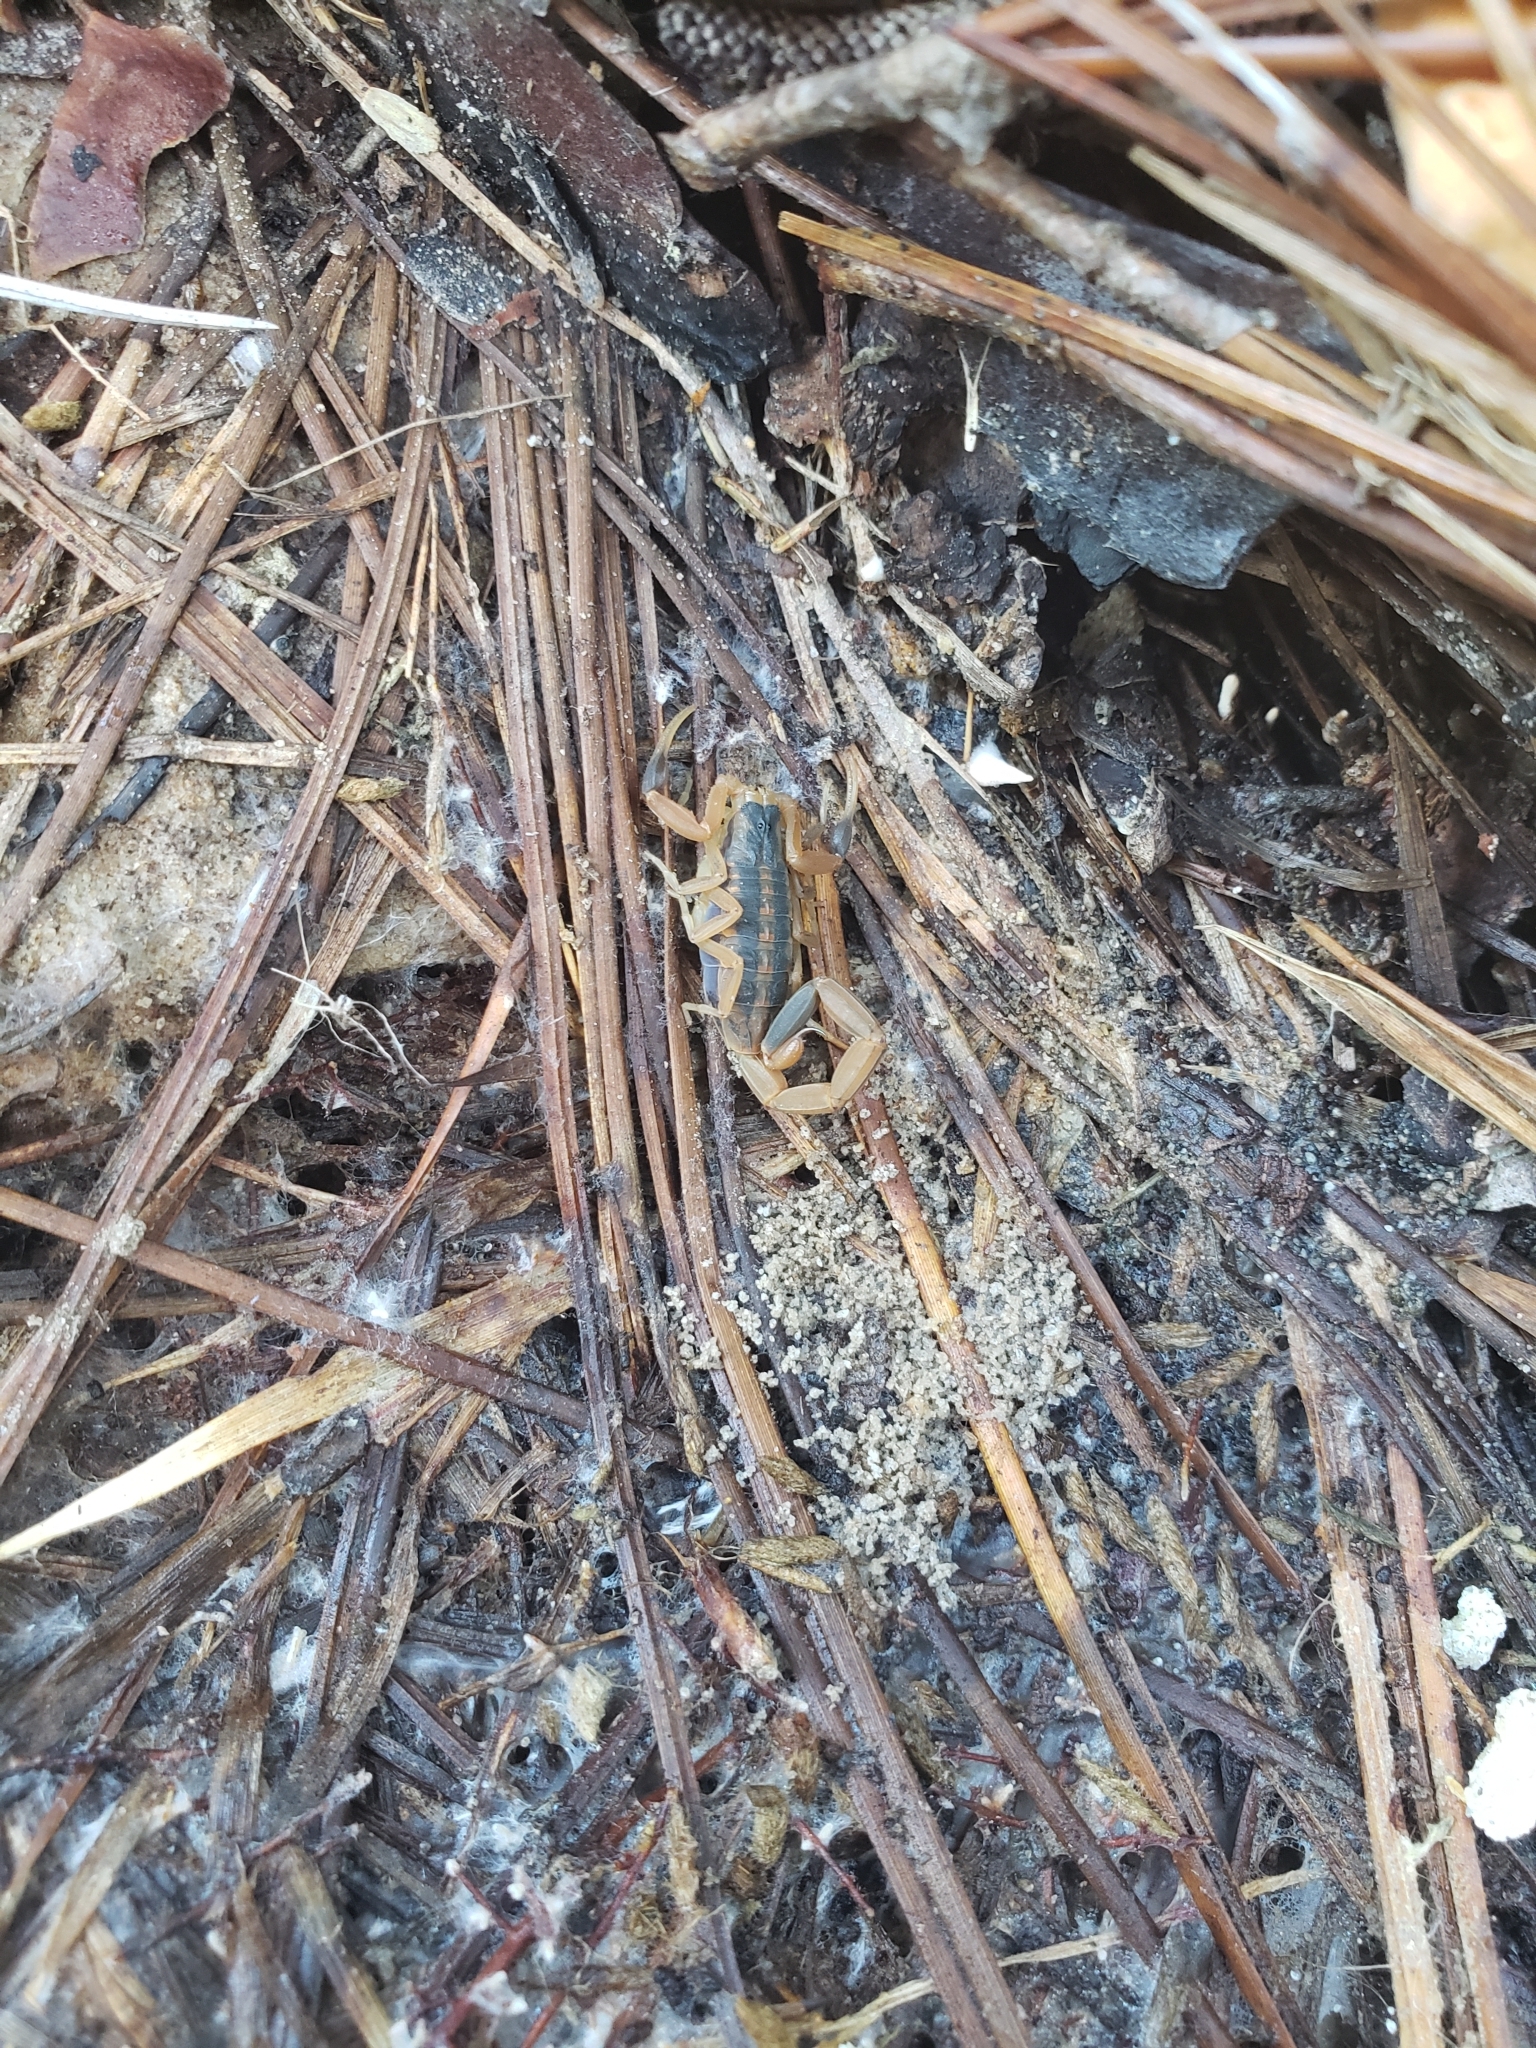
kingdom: Animalia
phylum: Arthropoda
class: Arachnida
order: Scorpiones
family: Buthidae
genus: Centruroides
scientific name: Centruroides vittatus
